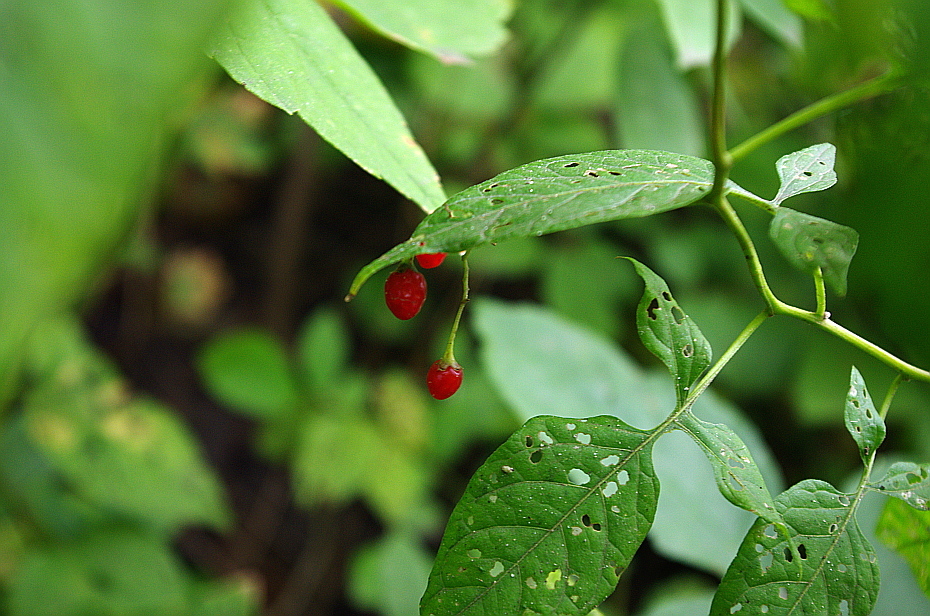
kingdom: Plantae
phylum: Tracheophyta
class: Magnoliopsida
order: Solanales
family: Solanaceae
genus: Solanum
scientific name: Solanum dulcamara
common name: Climbing nightshade
